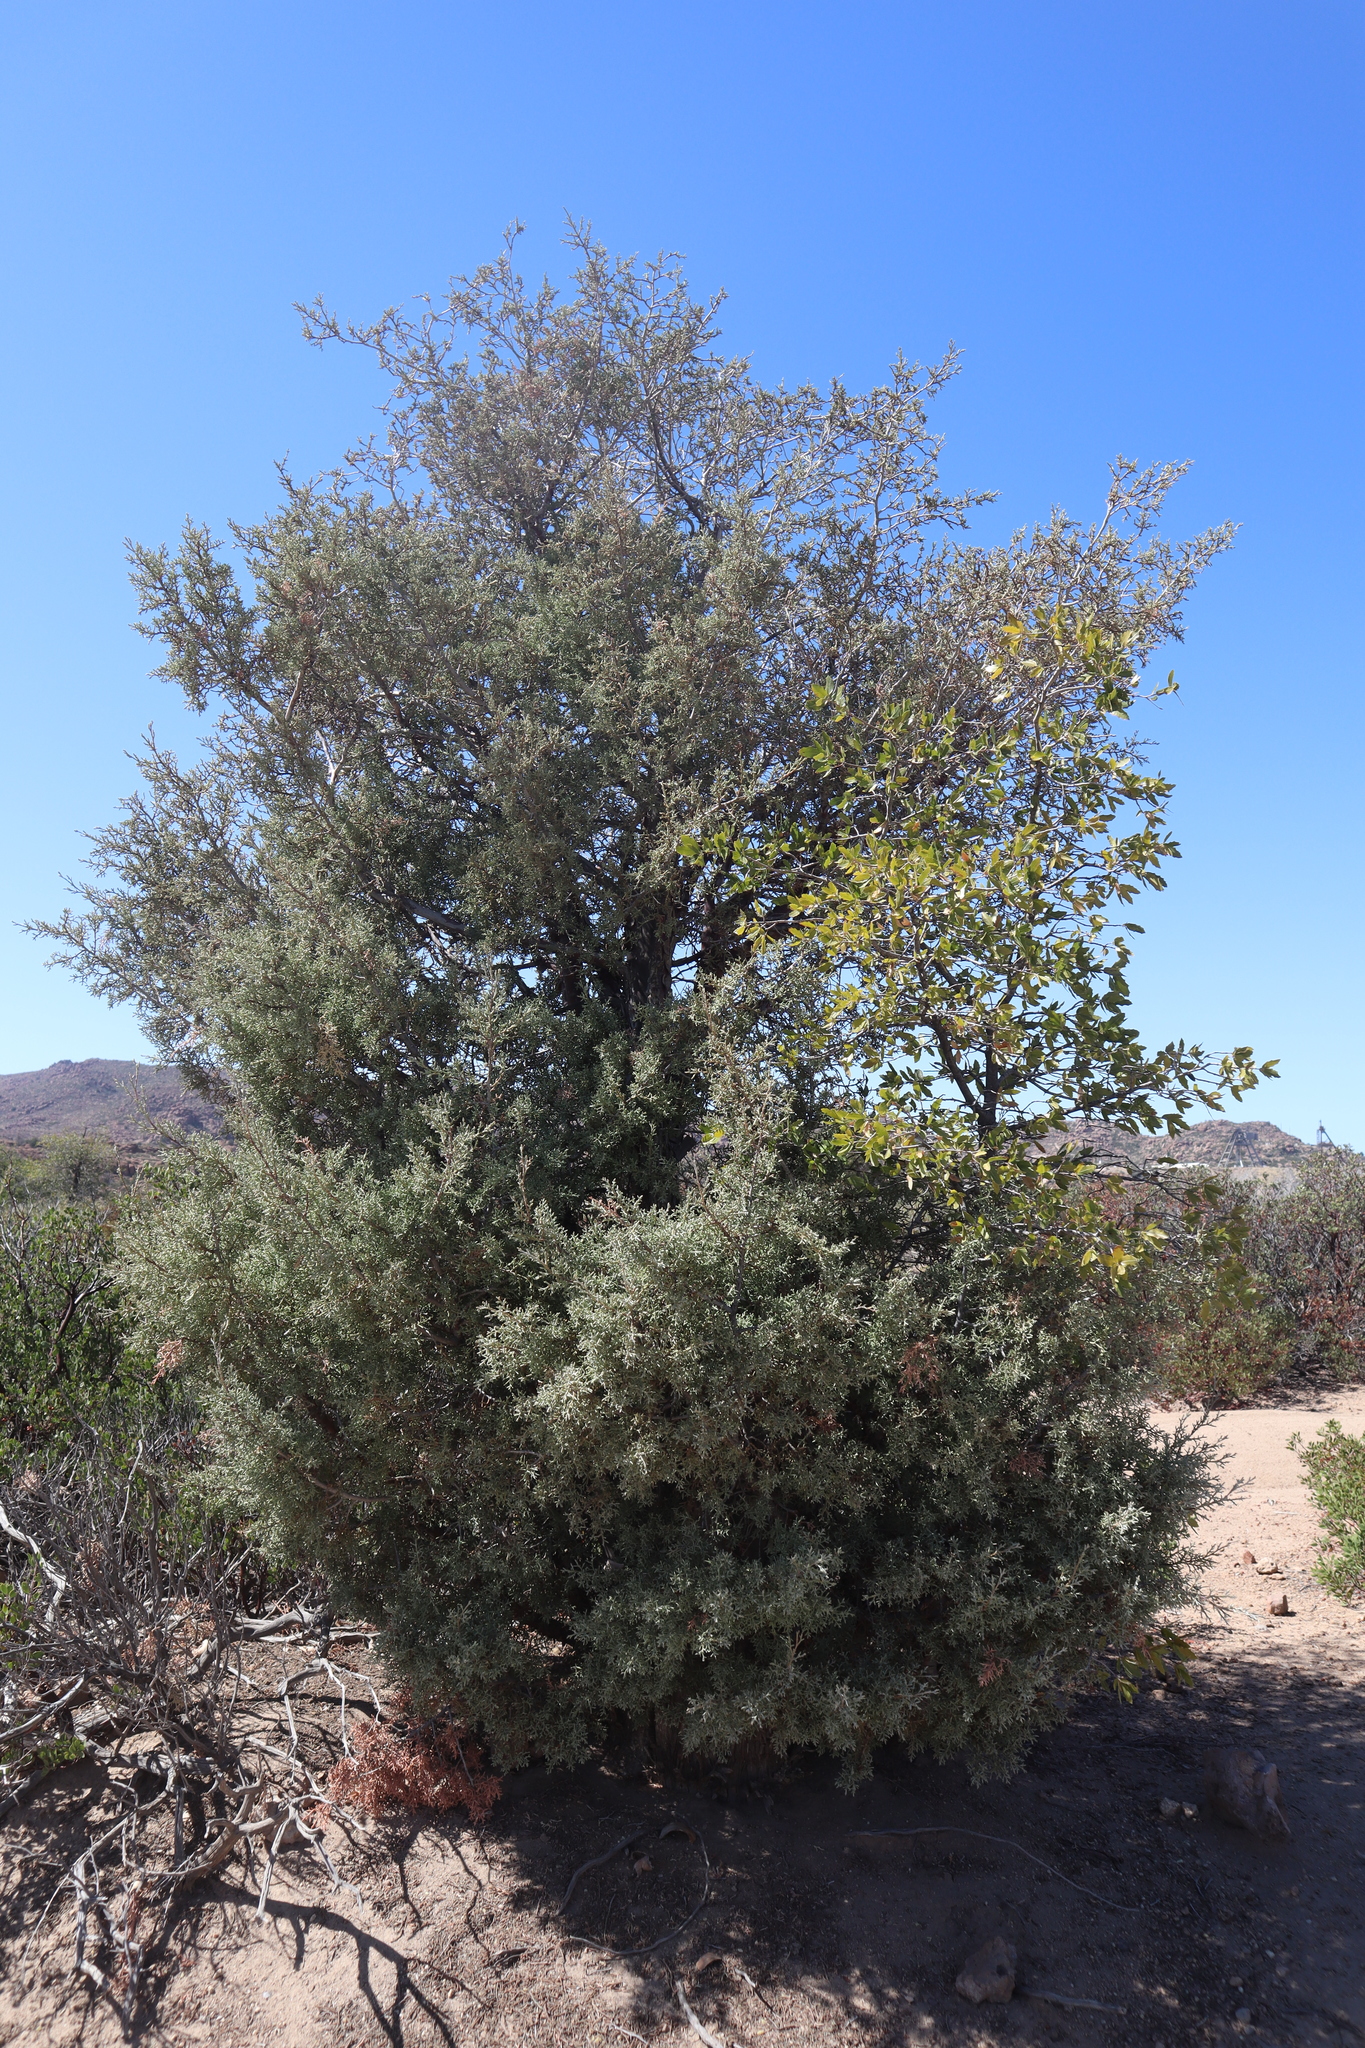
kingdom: Plantae
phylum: Tracheophyta
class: Pinopsida
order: Pinales
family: Cupressaceae
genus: Cupressus
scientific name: Cupressus arizonica
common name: Arizona cypress
